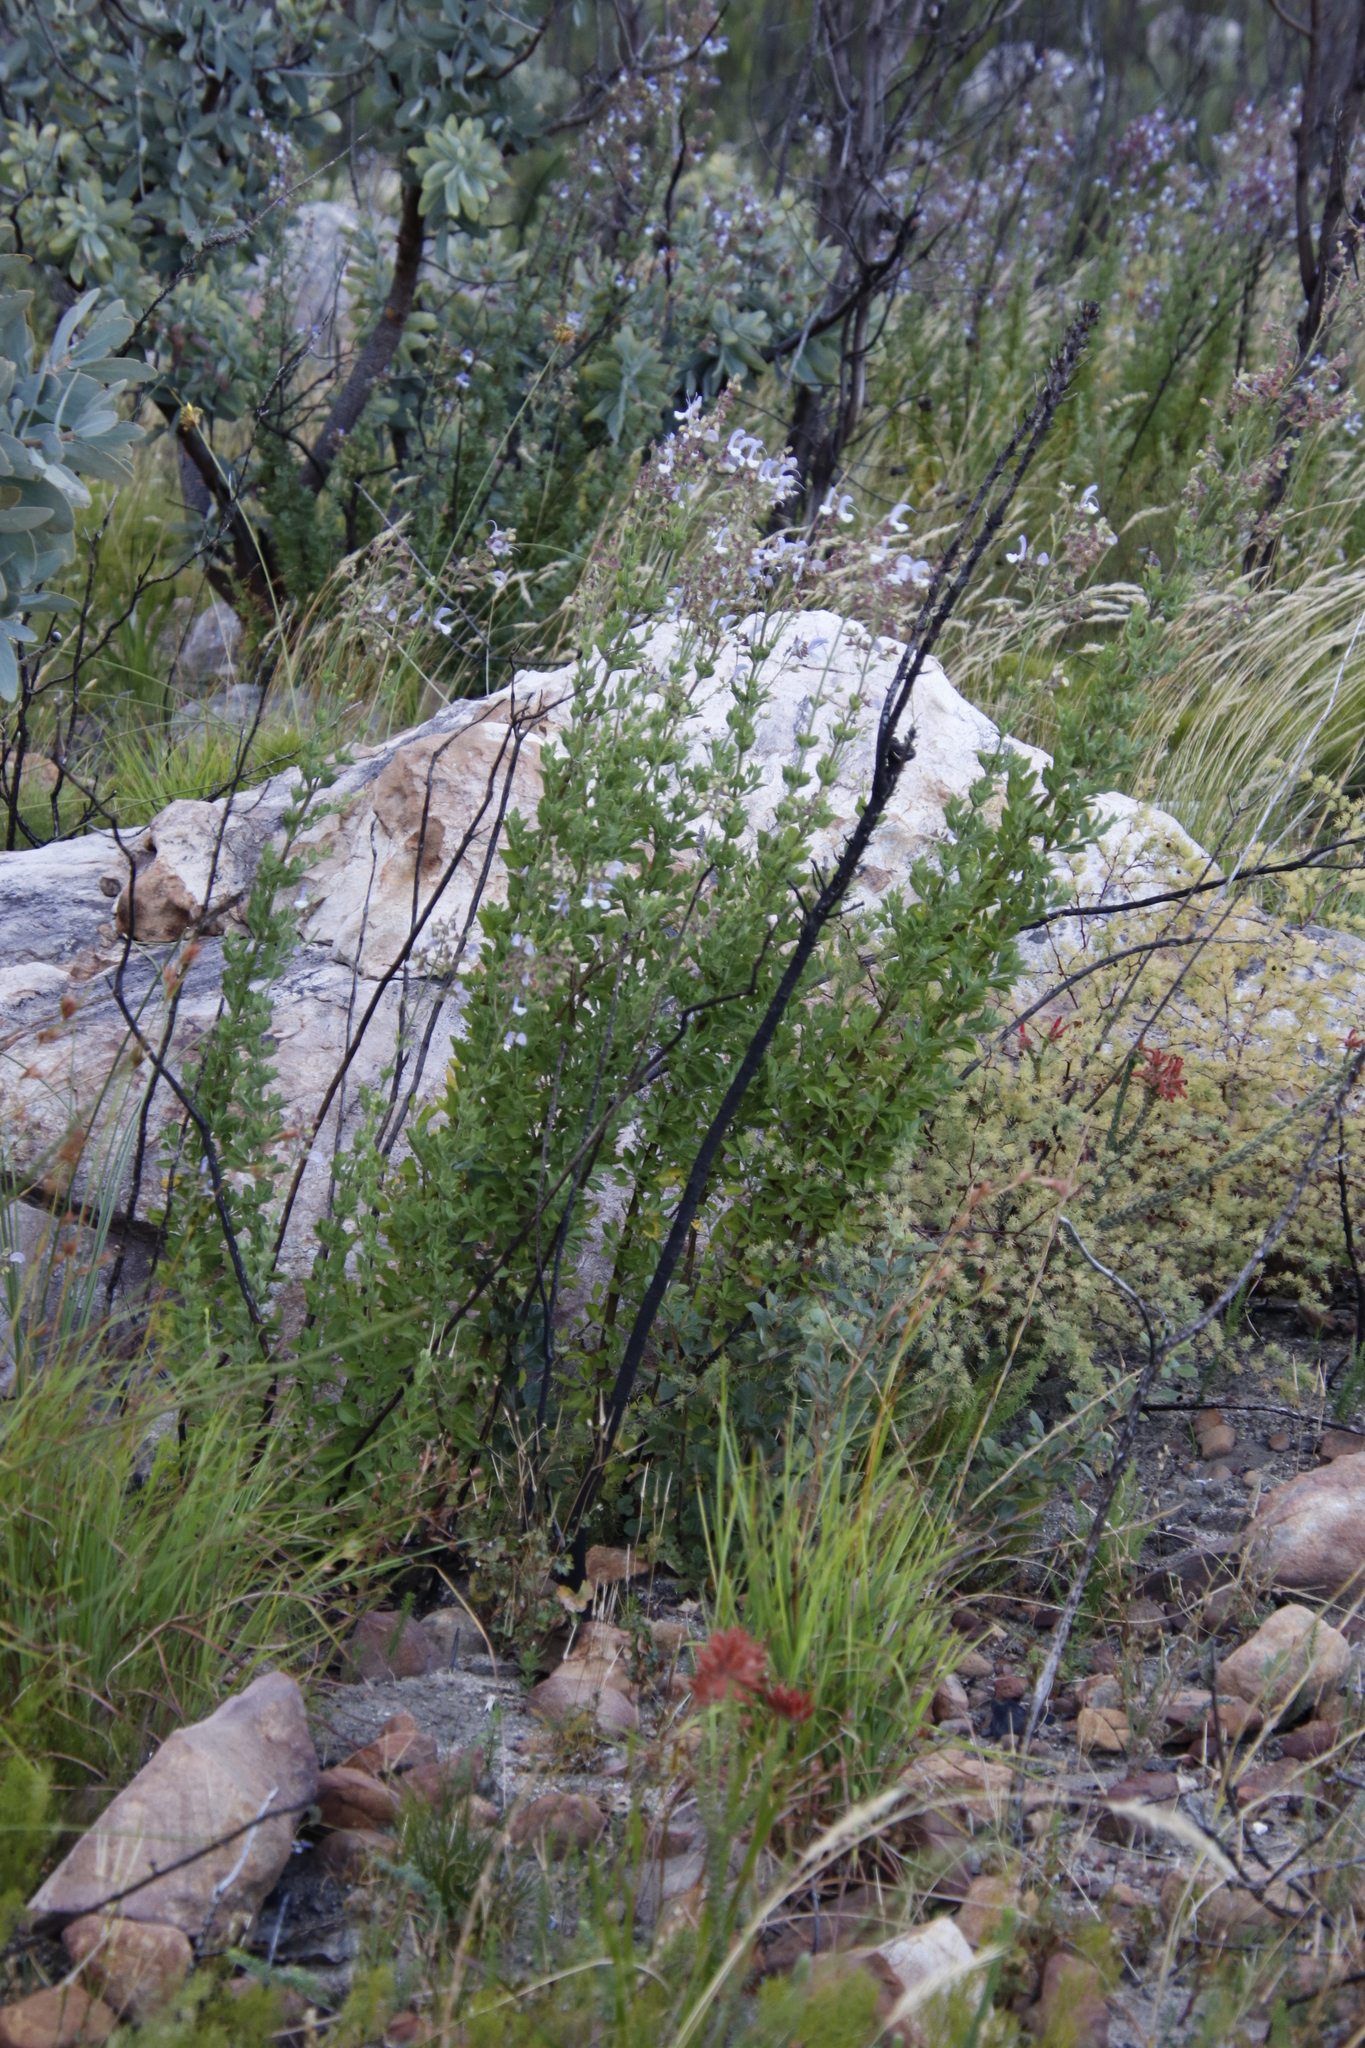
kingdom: Plantae
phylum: Tracheophyta
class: Magnoliopsida
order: Lamiales
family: Lamiaceae
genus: Salvia
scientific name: Salvia chamelaeagnea
